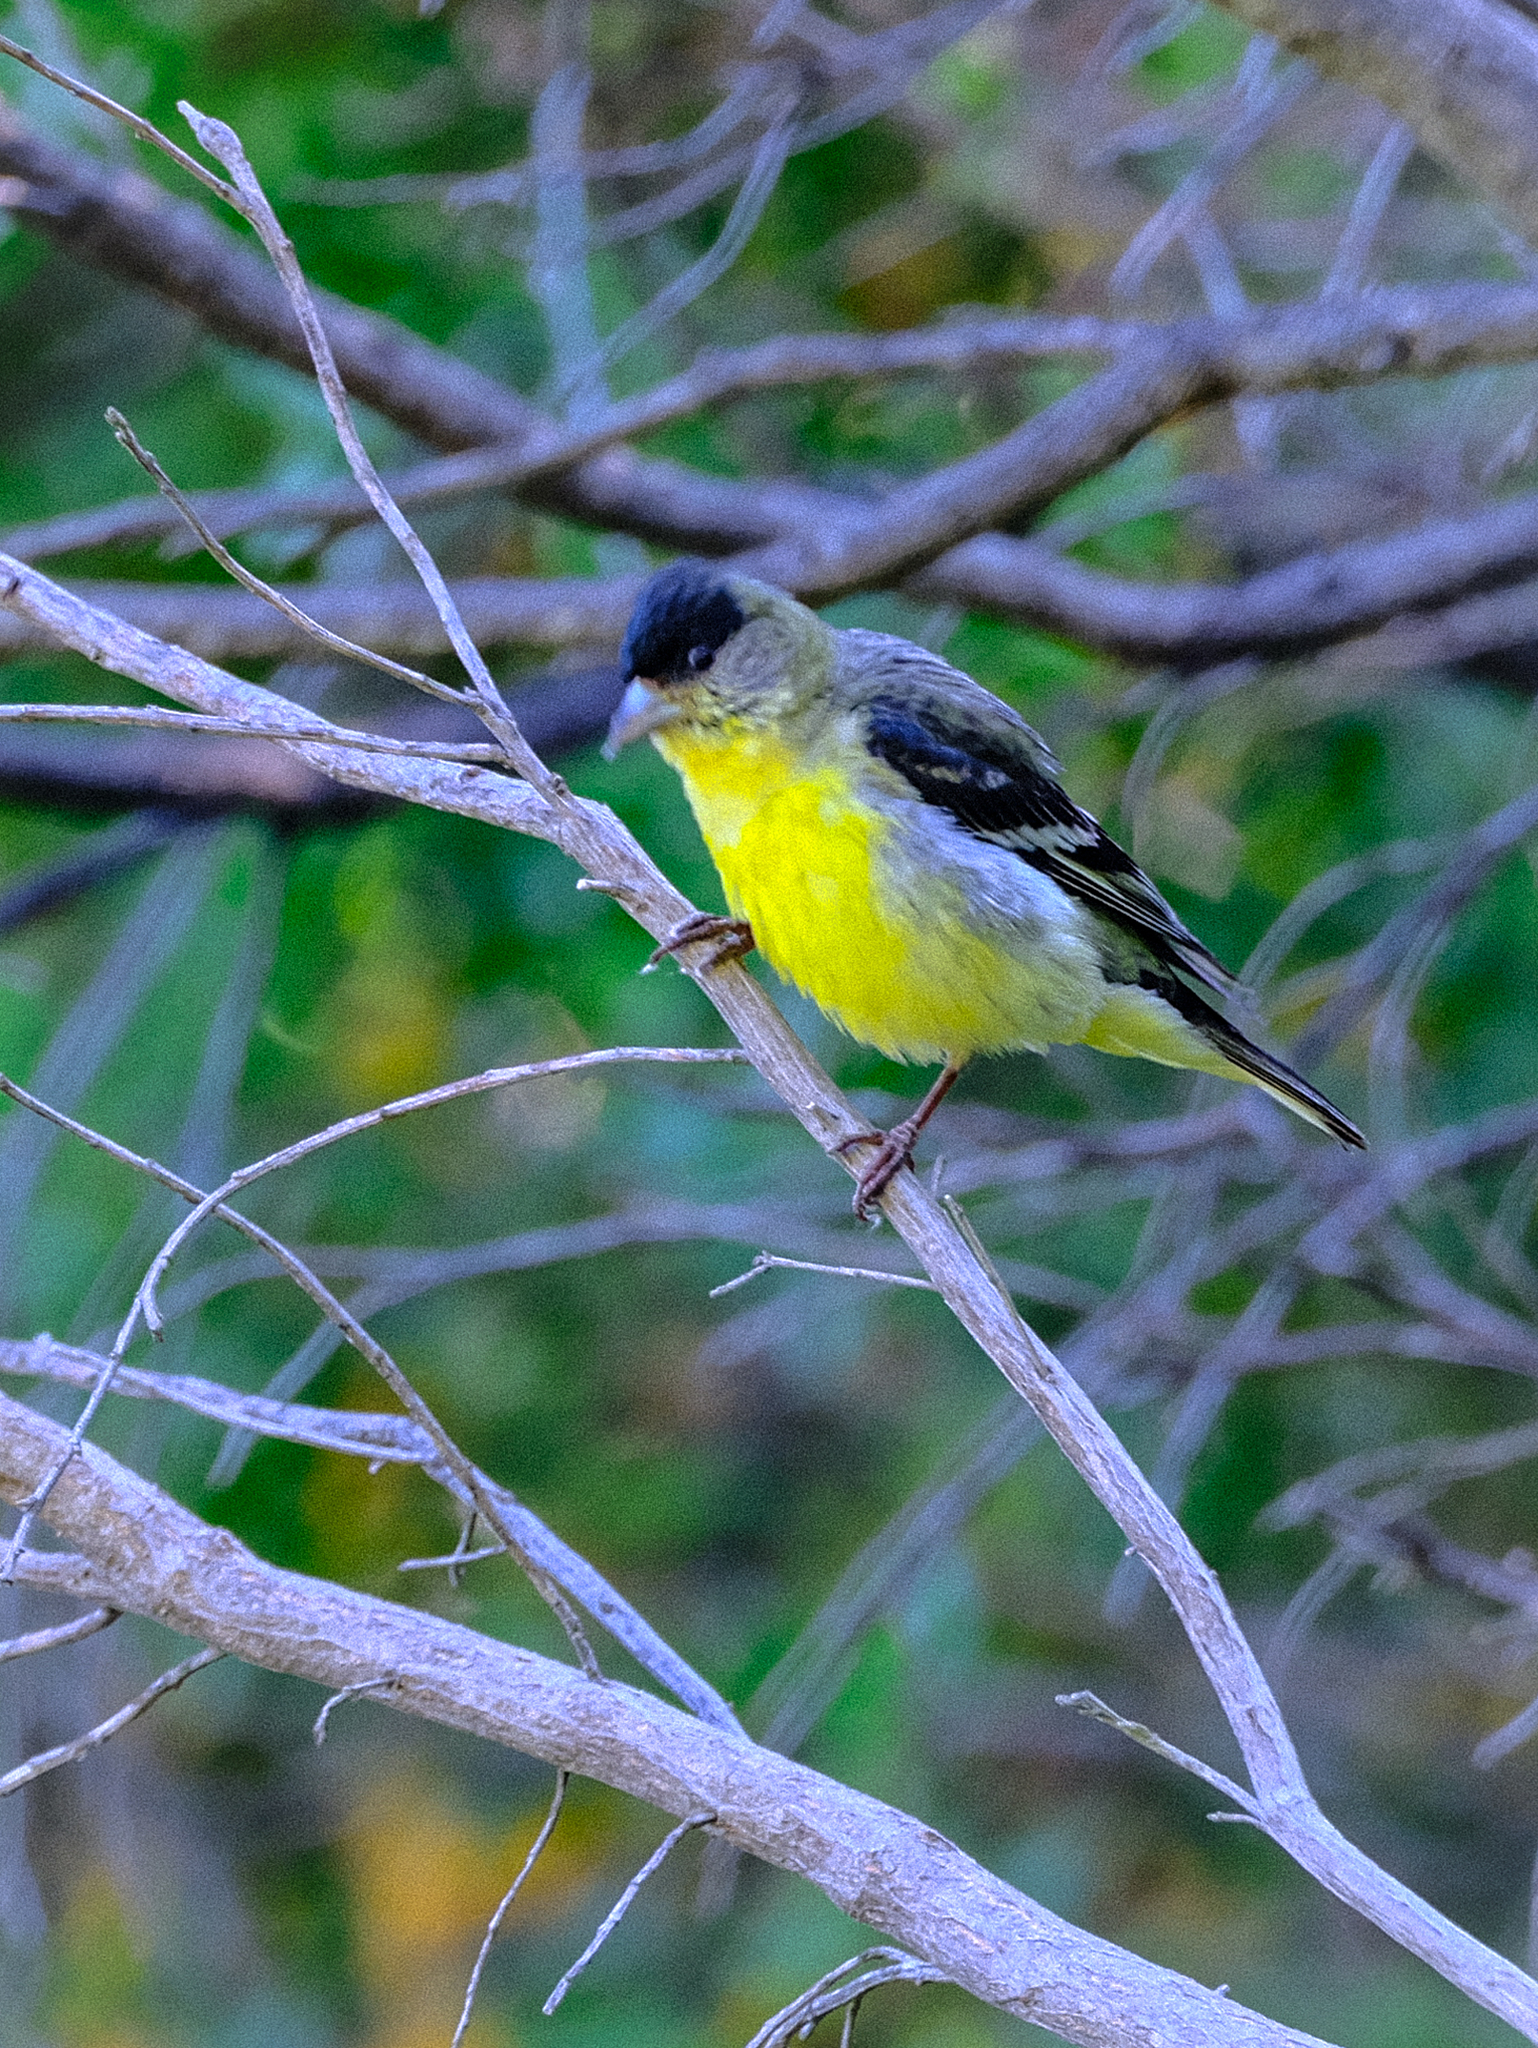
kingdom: Animalia
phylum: Chordata
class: Aves
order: Passeriformes
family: Fringillidae
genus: Spinus
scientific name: Spinus psaltria
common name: Lesser goldfinch
